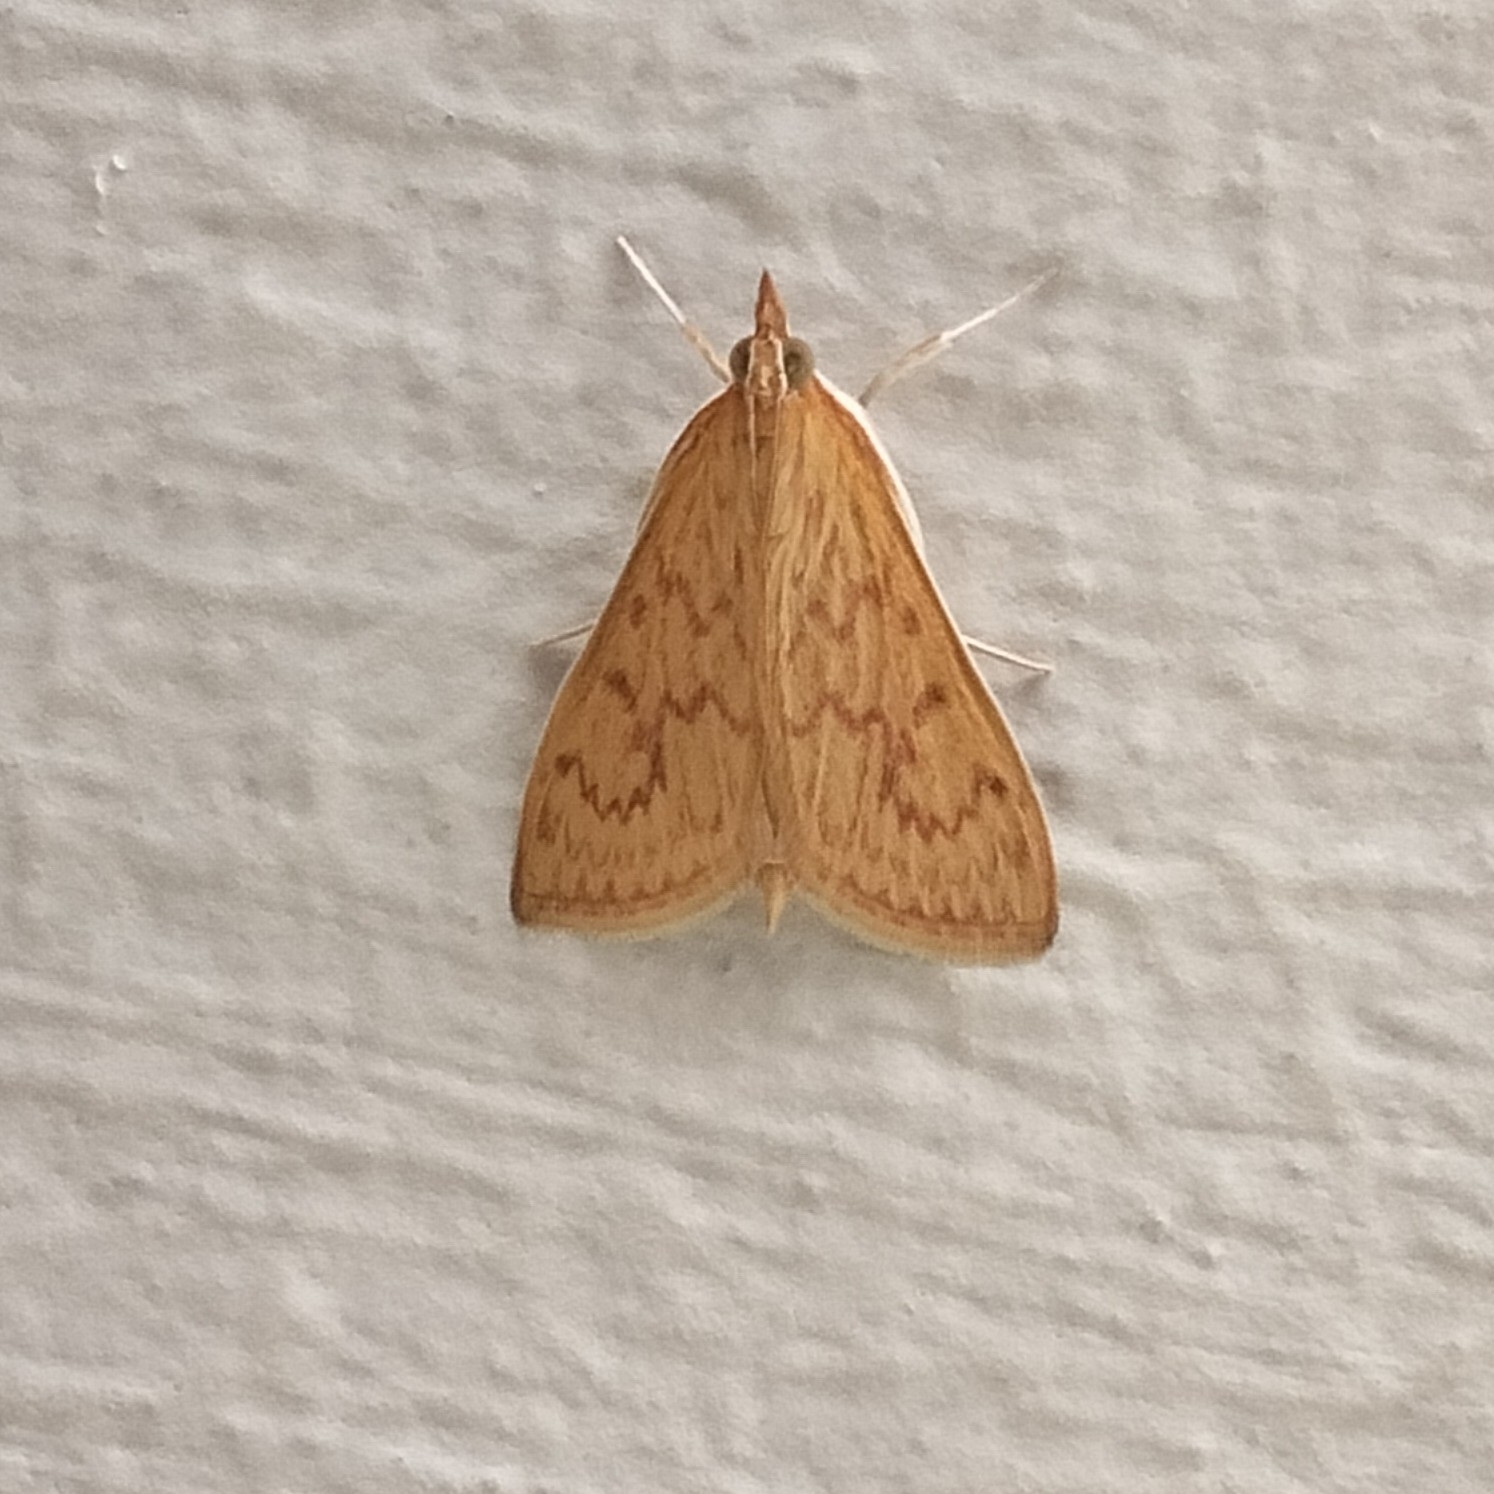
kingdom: Animalia
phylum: Arthropoda
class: Insecta
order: Lepidoptera
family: Crambidae
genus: Paliga
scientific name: Paliga damastesalis
